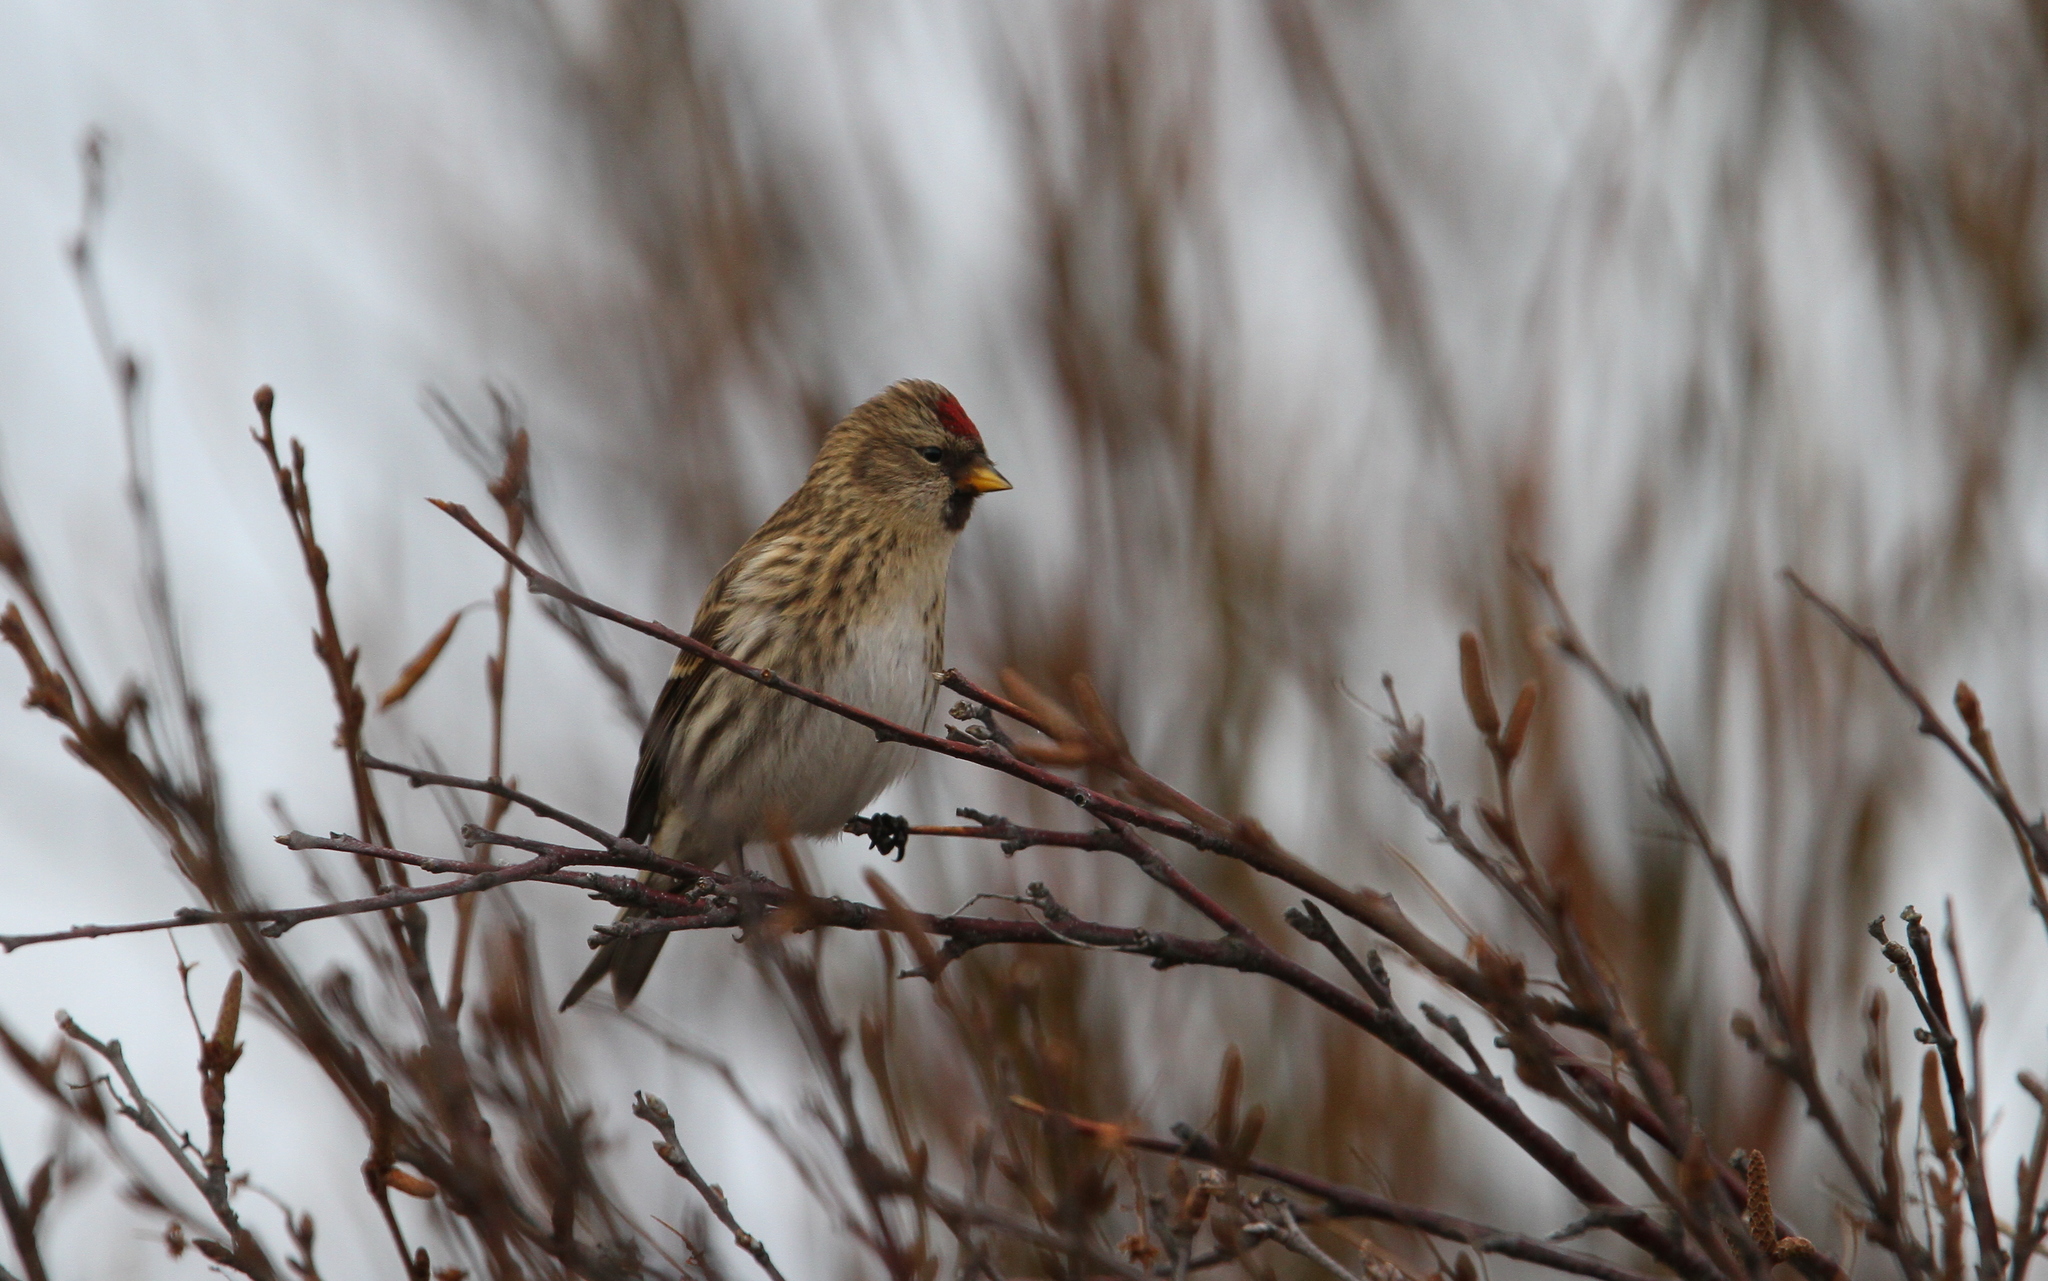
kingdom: Animalia
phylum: Chordata
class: Aves
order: Passeriformes
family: Fringillidae
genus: Acanthis
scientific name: Acanthis flammea
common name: Common redpoll
